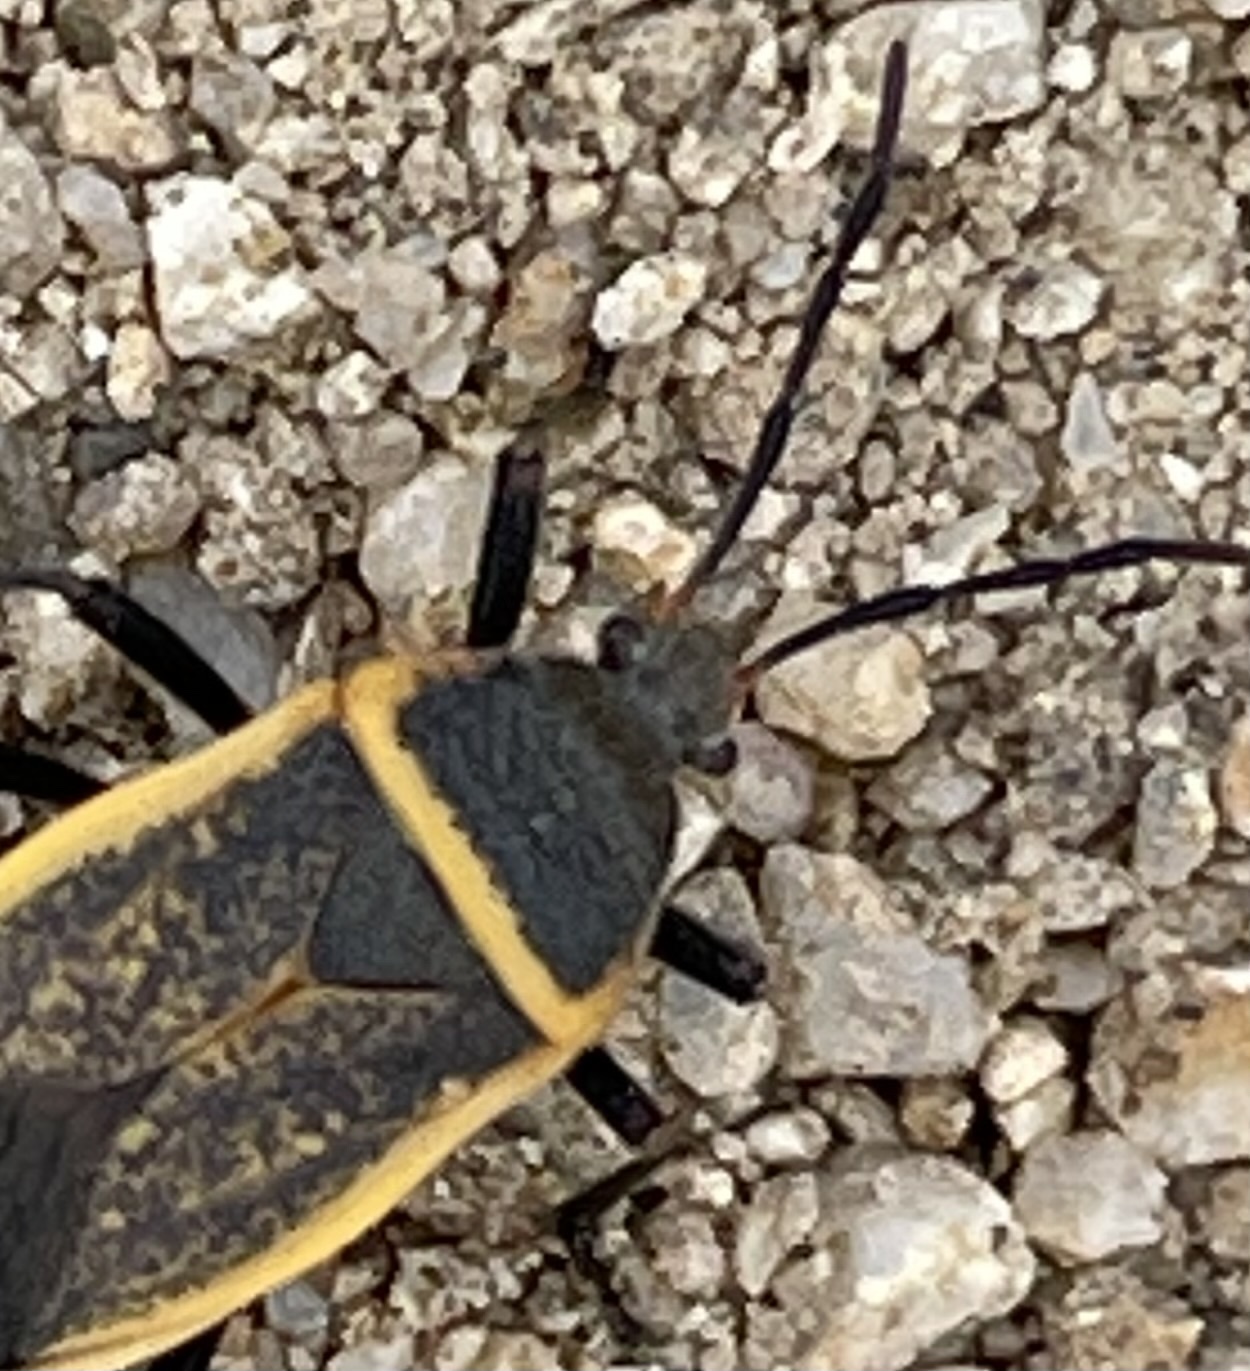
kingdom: Animalia
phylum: Arthropoda
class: Insecta
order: Hemiptera
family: Largidae
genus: Largus
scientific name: Largus californicus
